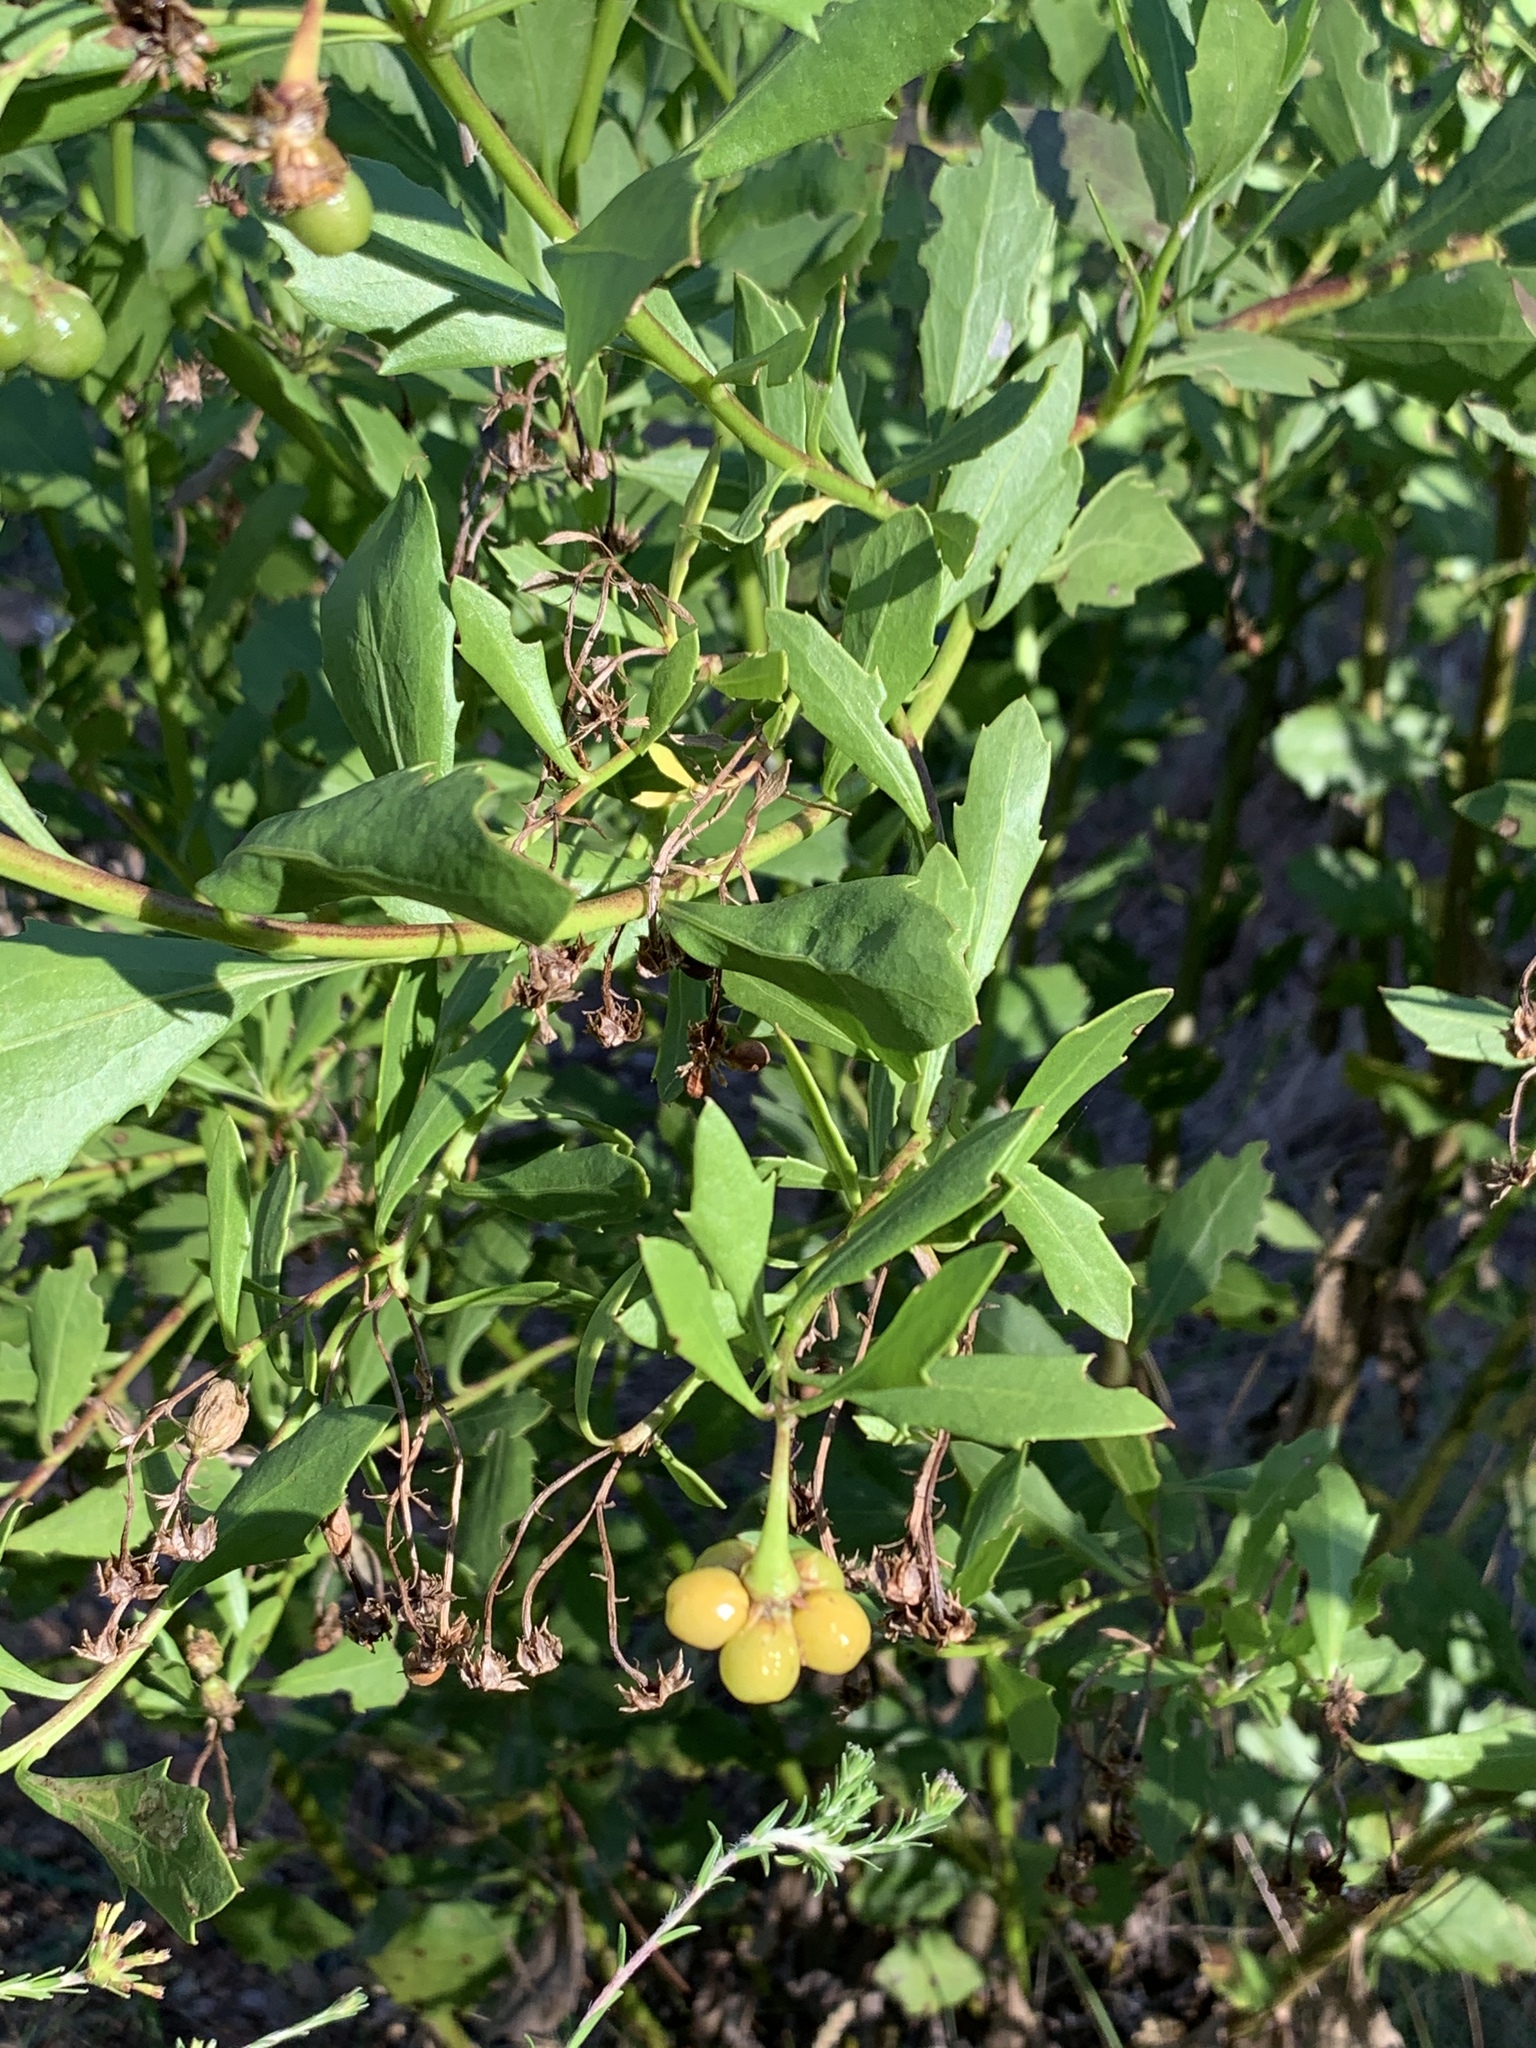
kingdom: Plantae
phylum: Tracheophyta
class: Magnoliopsida
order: Asterales
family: Asteraceae
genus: Osteospermum
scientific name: Osteospermum moniliferum
